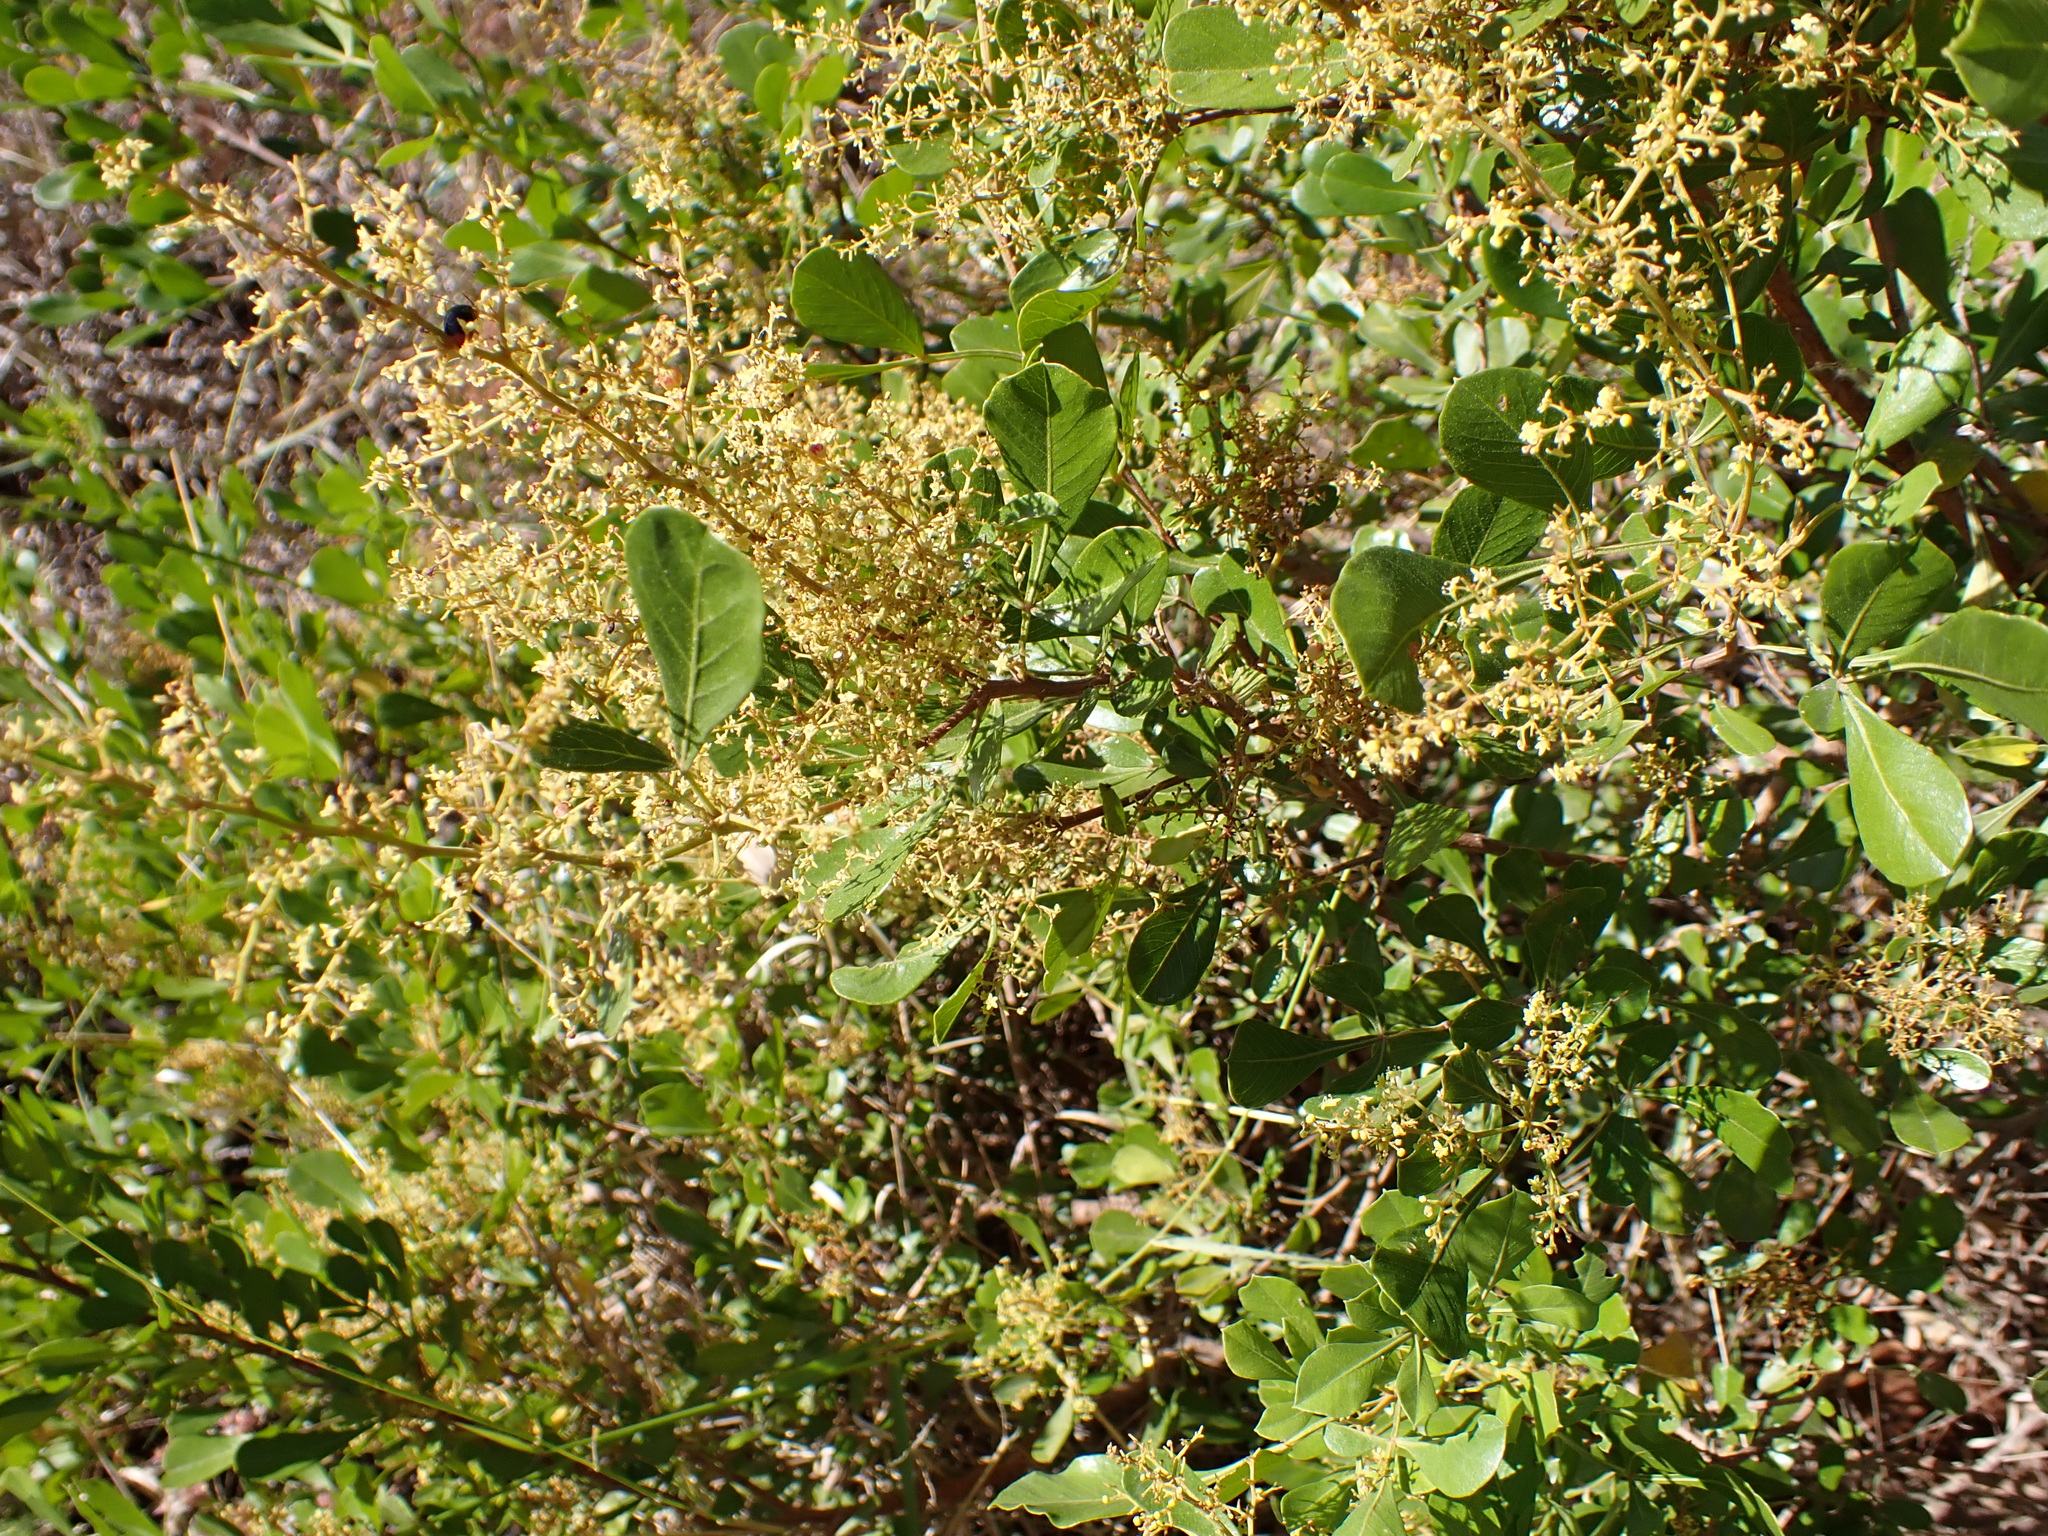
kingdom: Plantae
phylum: Tracheophyta
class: Magnoliopsida
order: Sapindales
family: Anacardiaceae
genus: Searsia
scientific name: Searsia lucida
